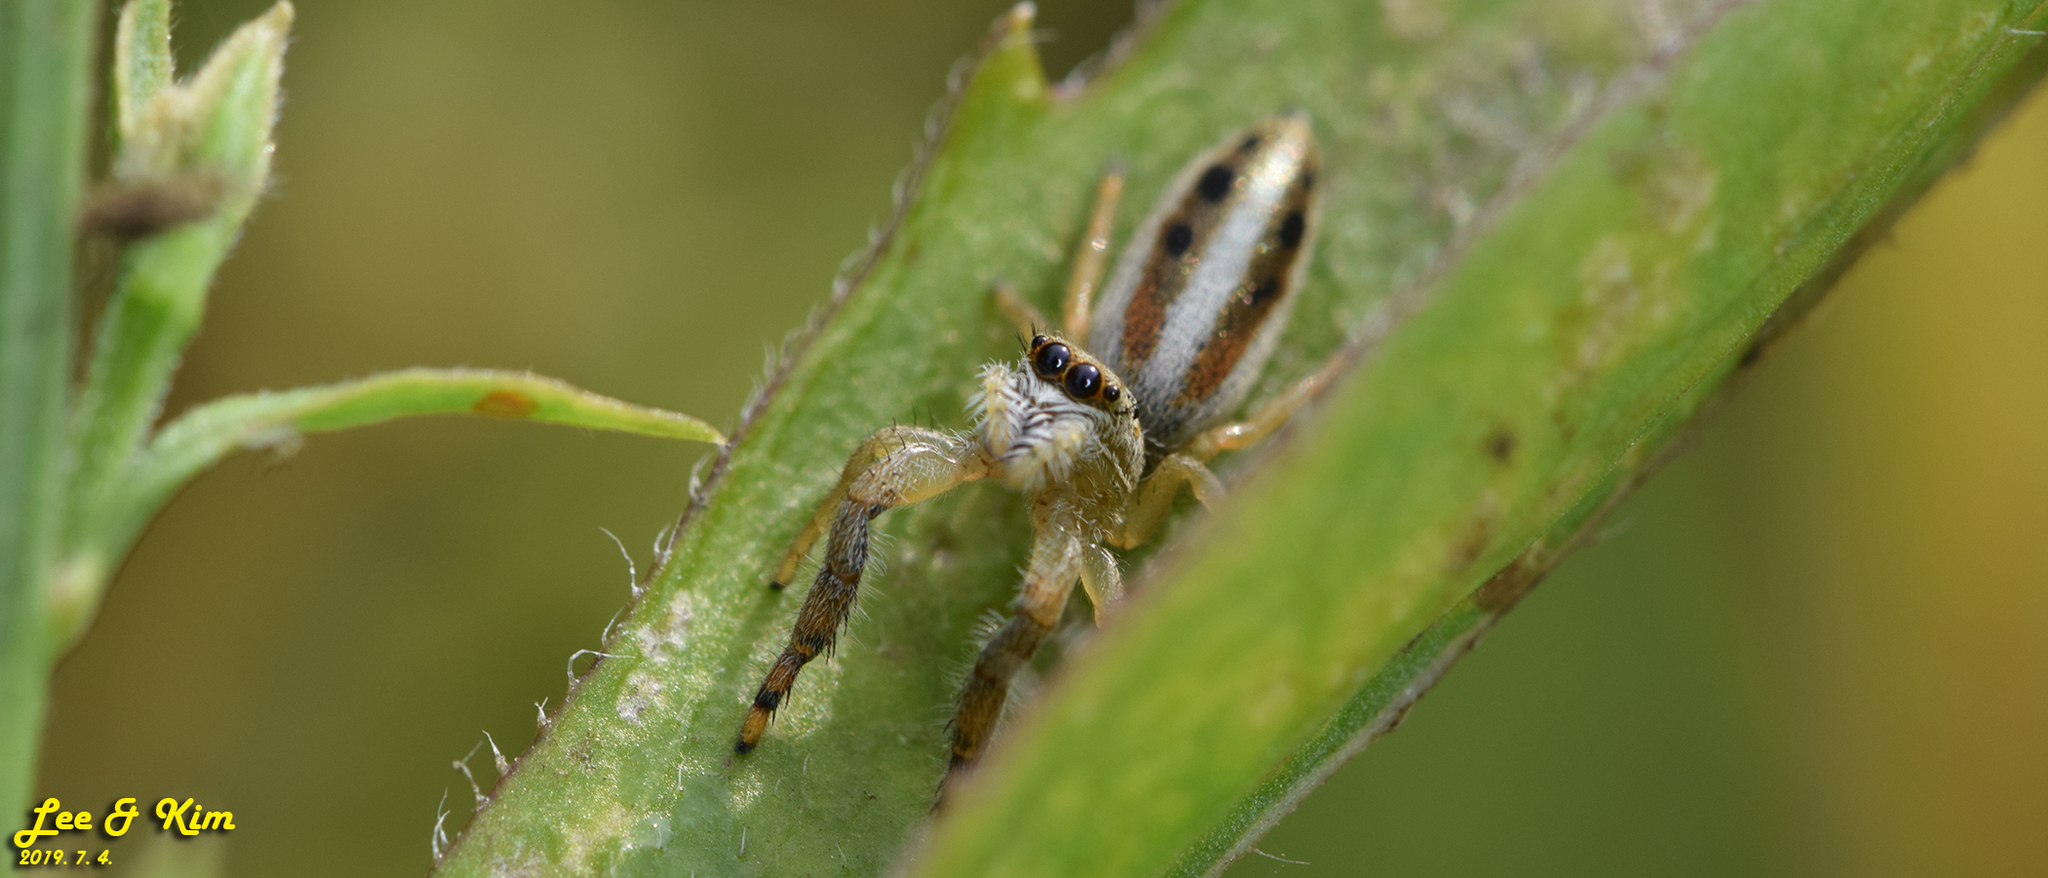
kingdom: Animalia
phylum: Arthropoda
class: Arachnida
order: Araneae
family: Salticidae
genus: Mendoza
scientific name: Mendoza canestrinii
